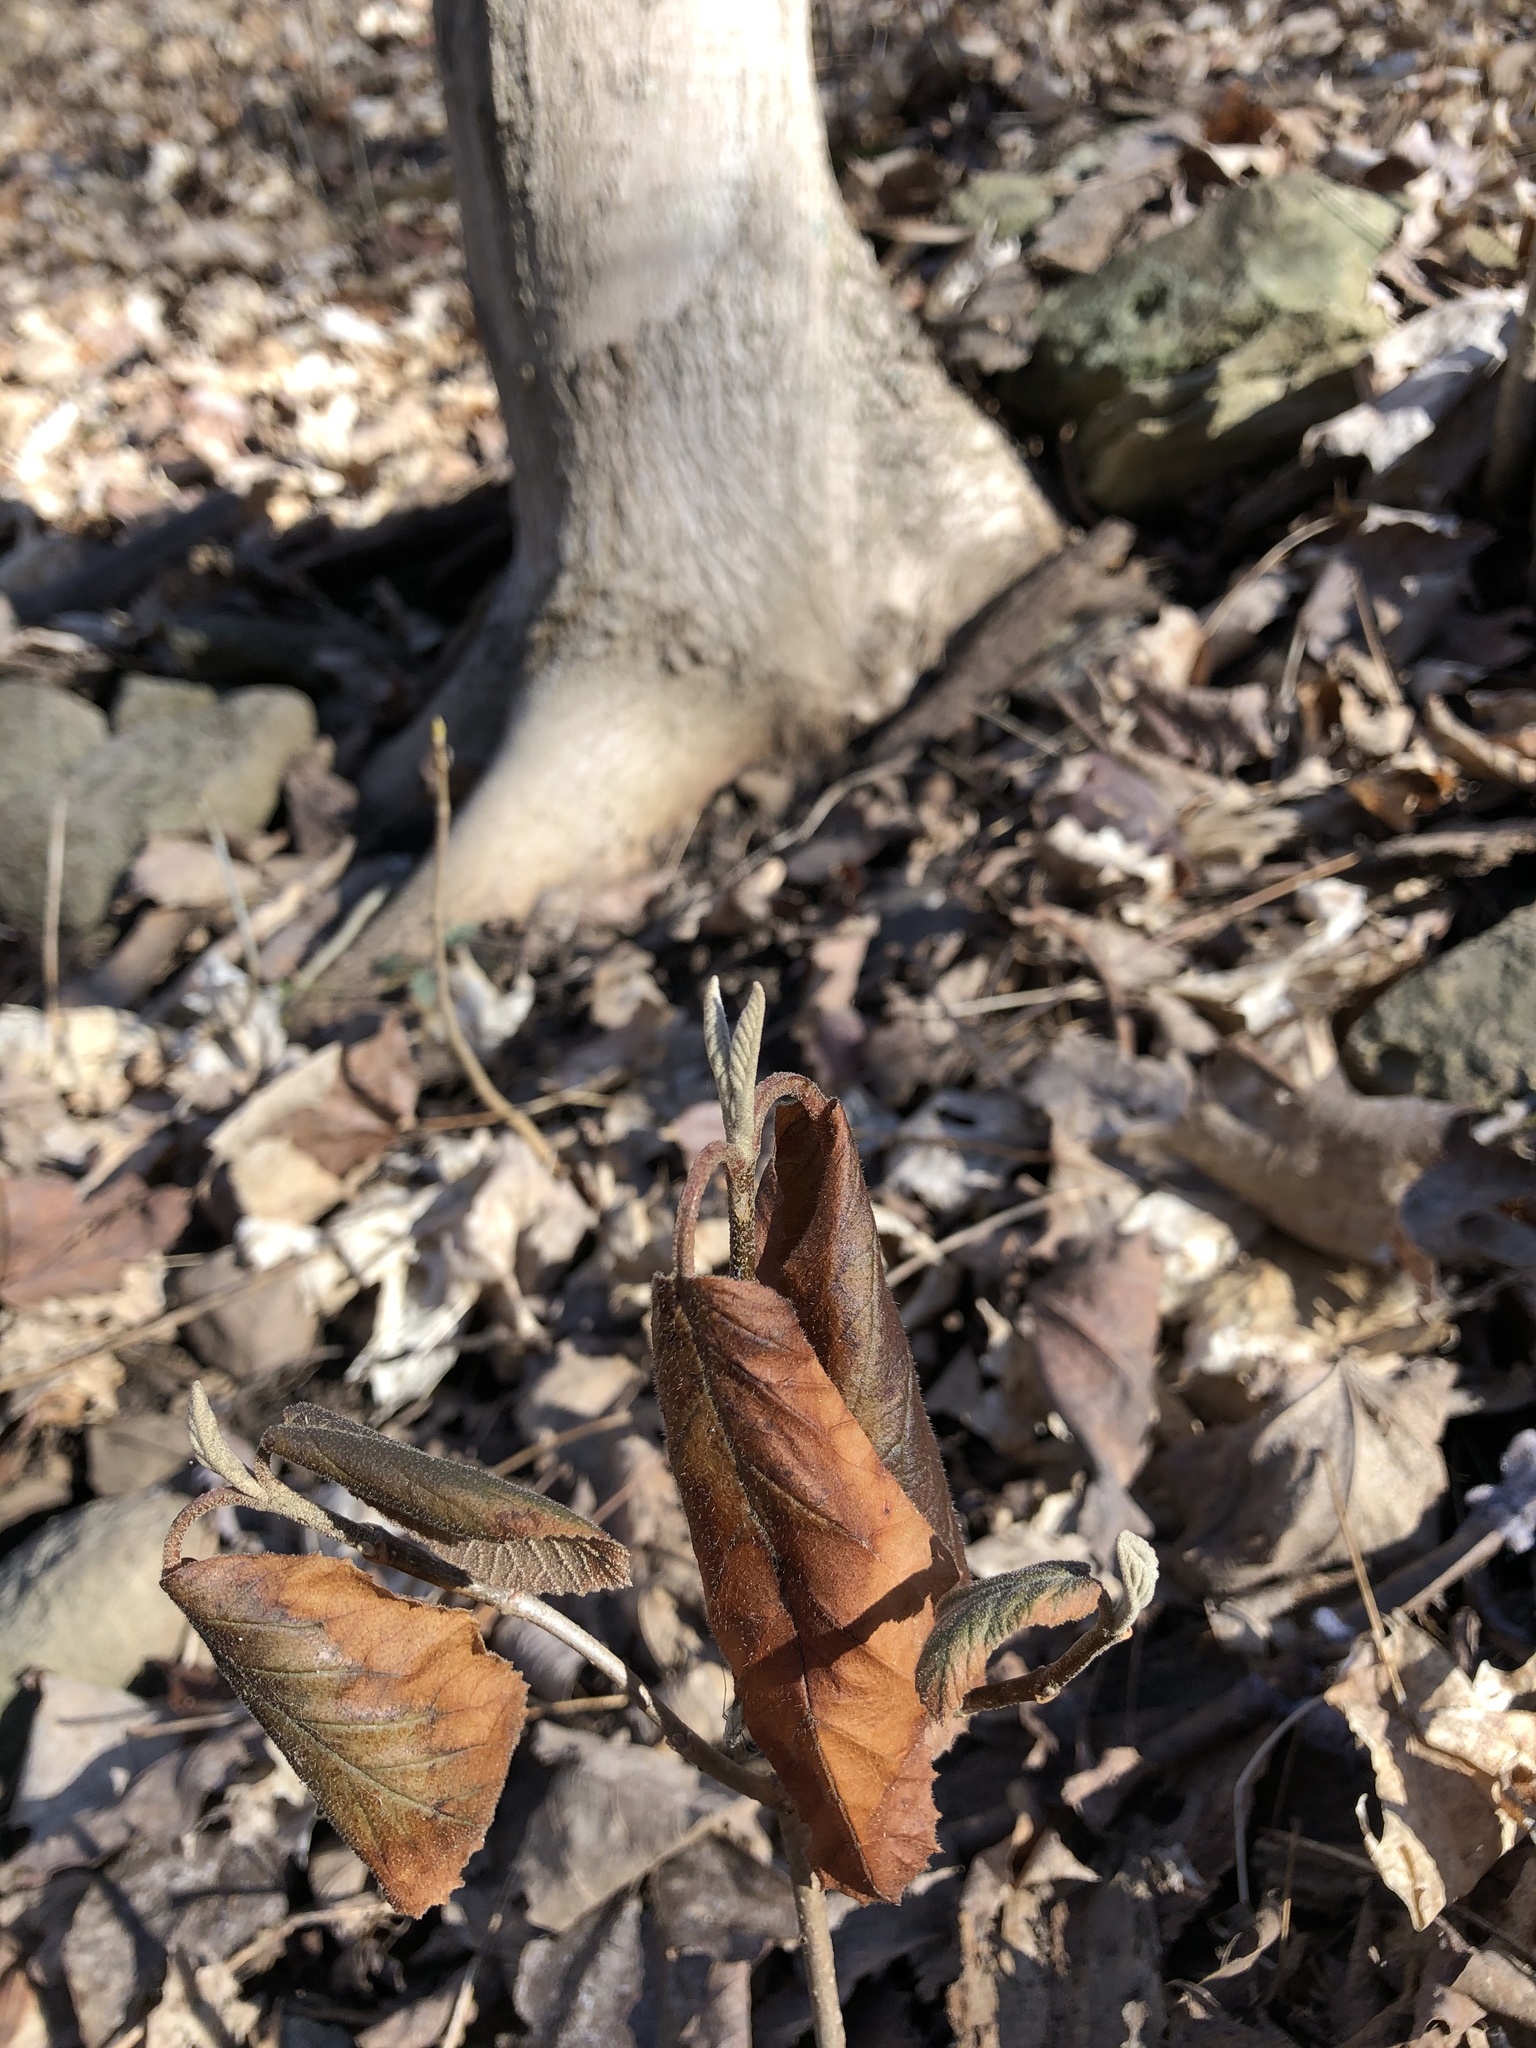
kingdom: Plantae
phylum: Tracheophyta
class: Magnoliopsida
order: Dipsacales
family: Viburnaceae
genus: Viburnum
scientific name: Viburnum lantana
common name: Wayfaring tree
